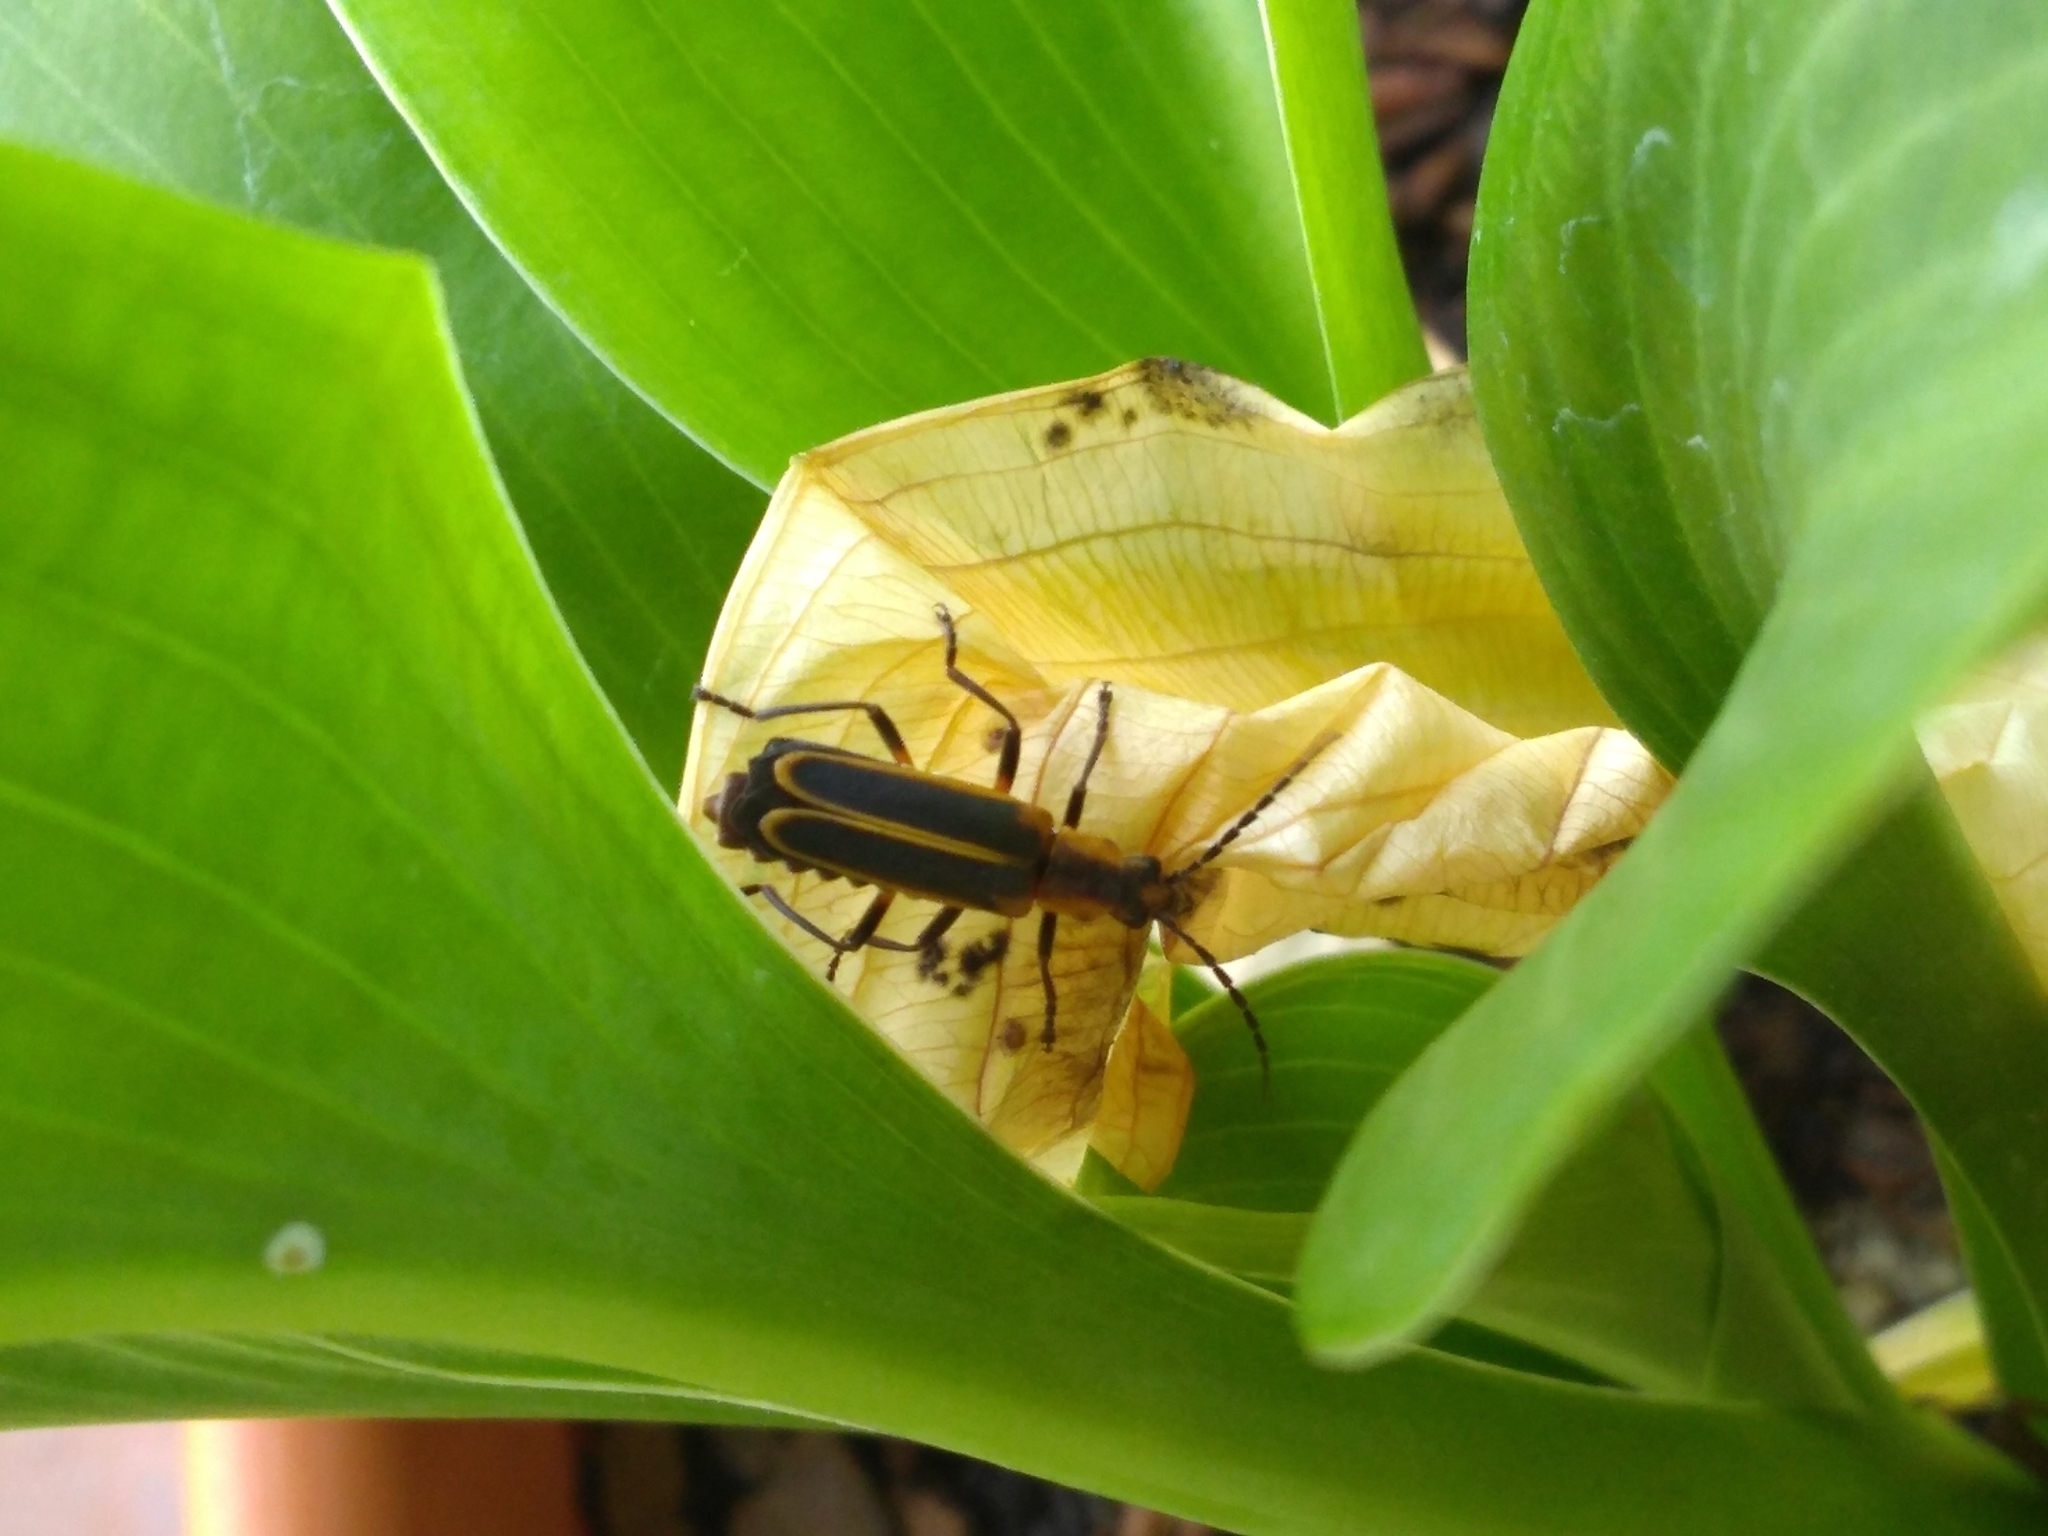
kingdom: Animalia
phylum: Arthropoda
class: Insecta
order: Coleoptera
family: Cantharidae
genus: Chauliognathus
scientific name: Chauliognathus marginatus
